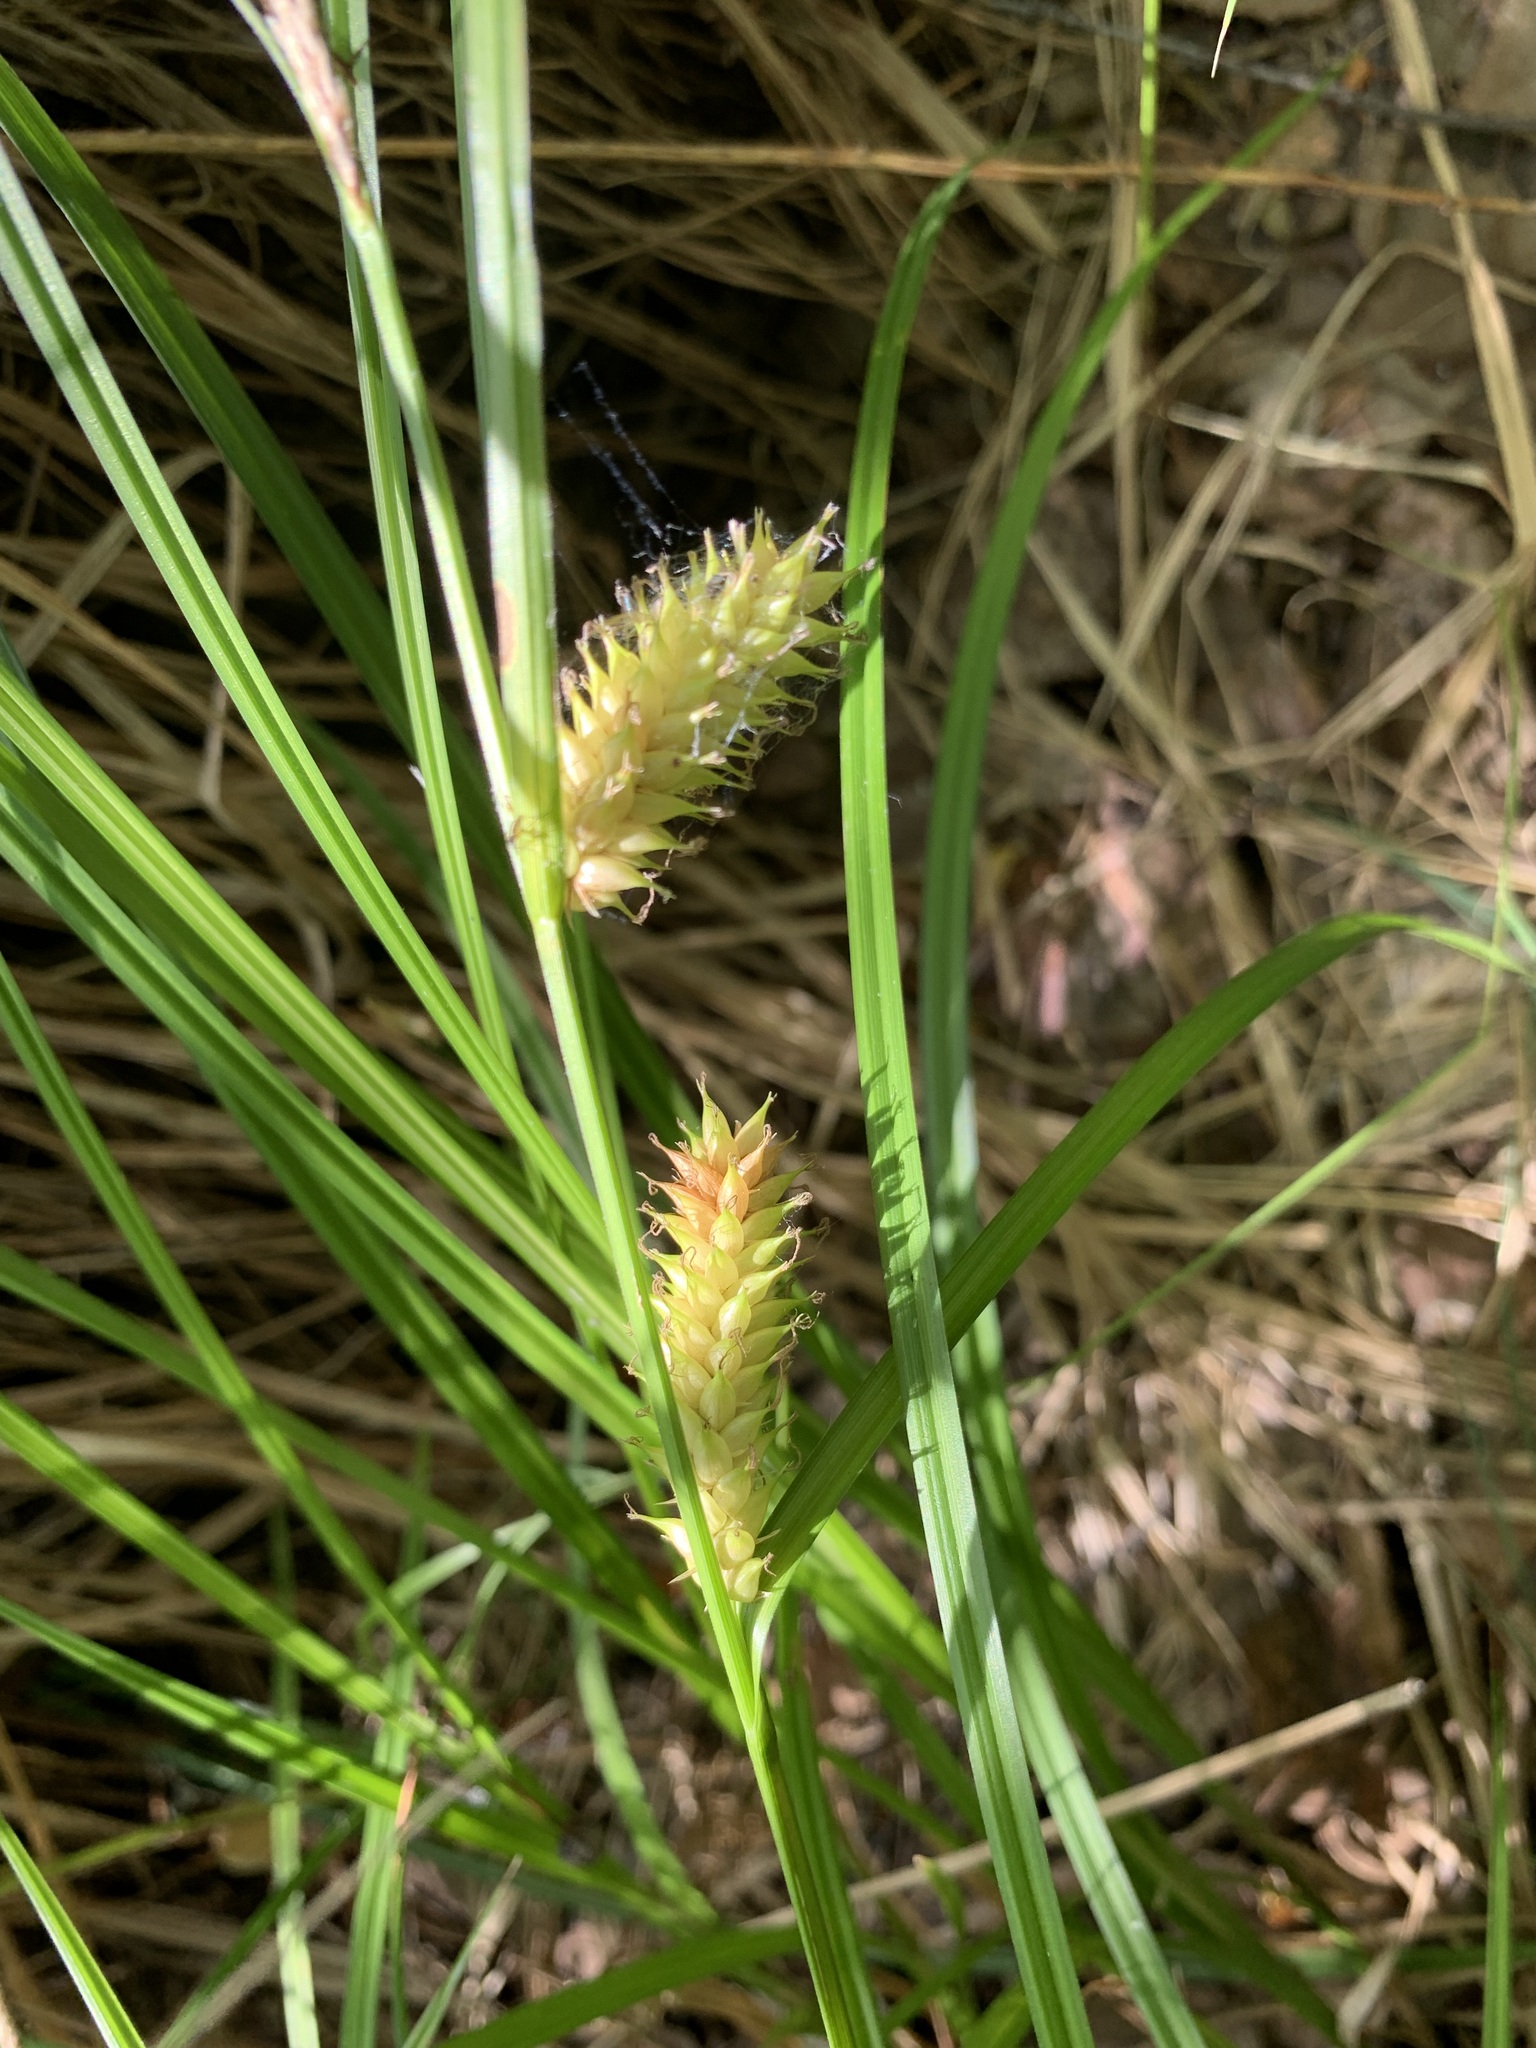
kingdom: Plantae
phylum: Tracheophyta
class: Liliopsida
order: Poales
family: Cyperaceae
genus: Carex
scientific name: Carex vesicaria
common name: Bladder-sedge
